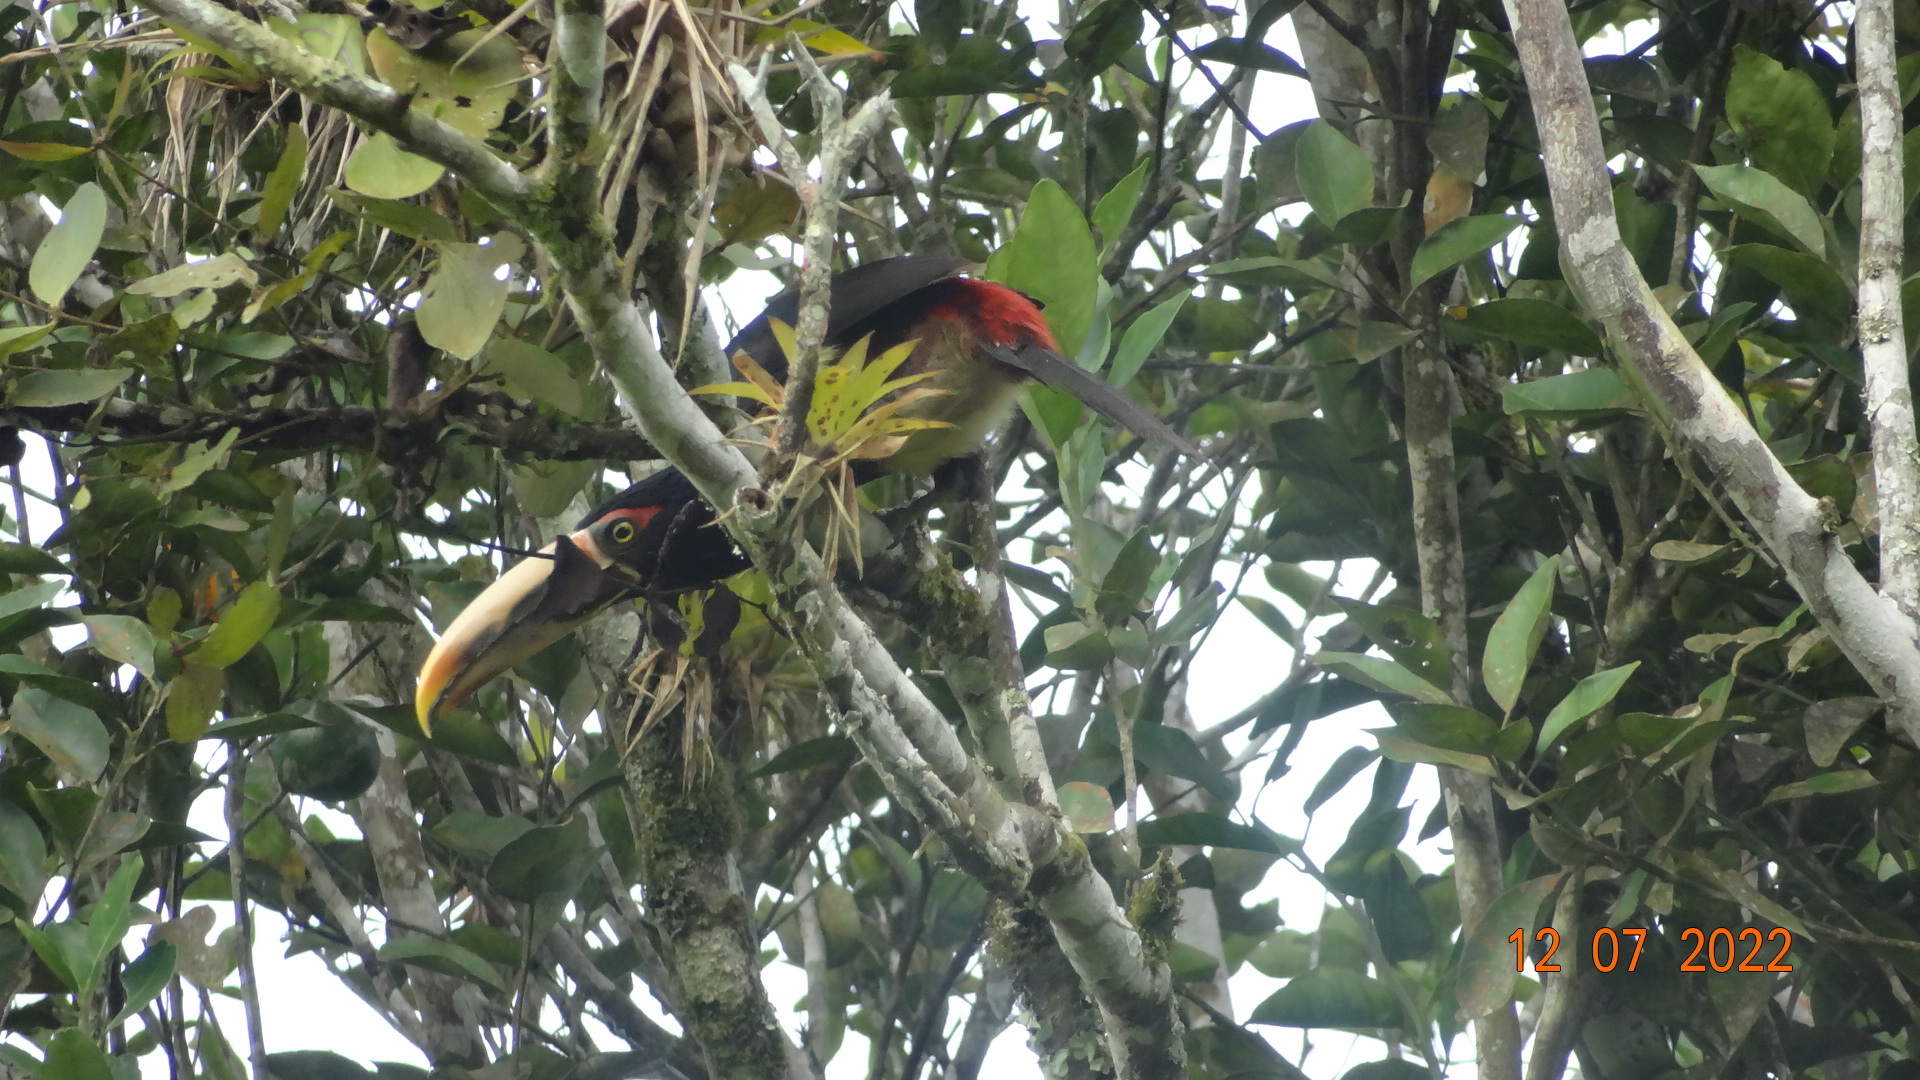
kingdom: Animalia
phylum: Chordata
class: Aves
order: Piciformes
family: Ramphastidae
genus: Pteroglossus
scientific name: Pteroglossus torquatus
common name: Collared aracari
